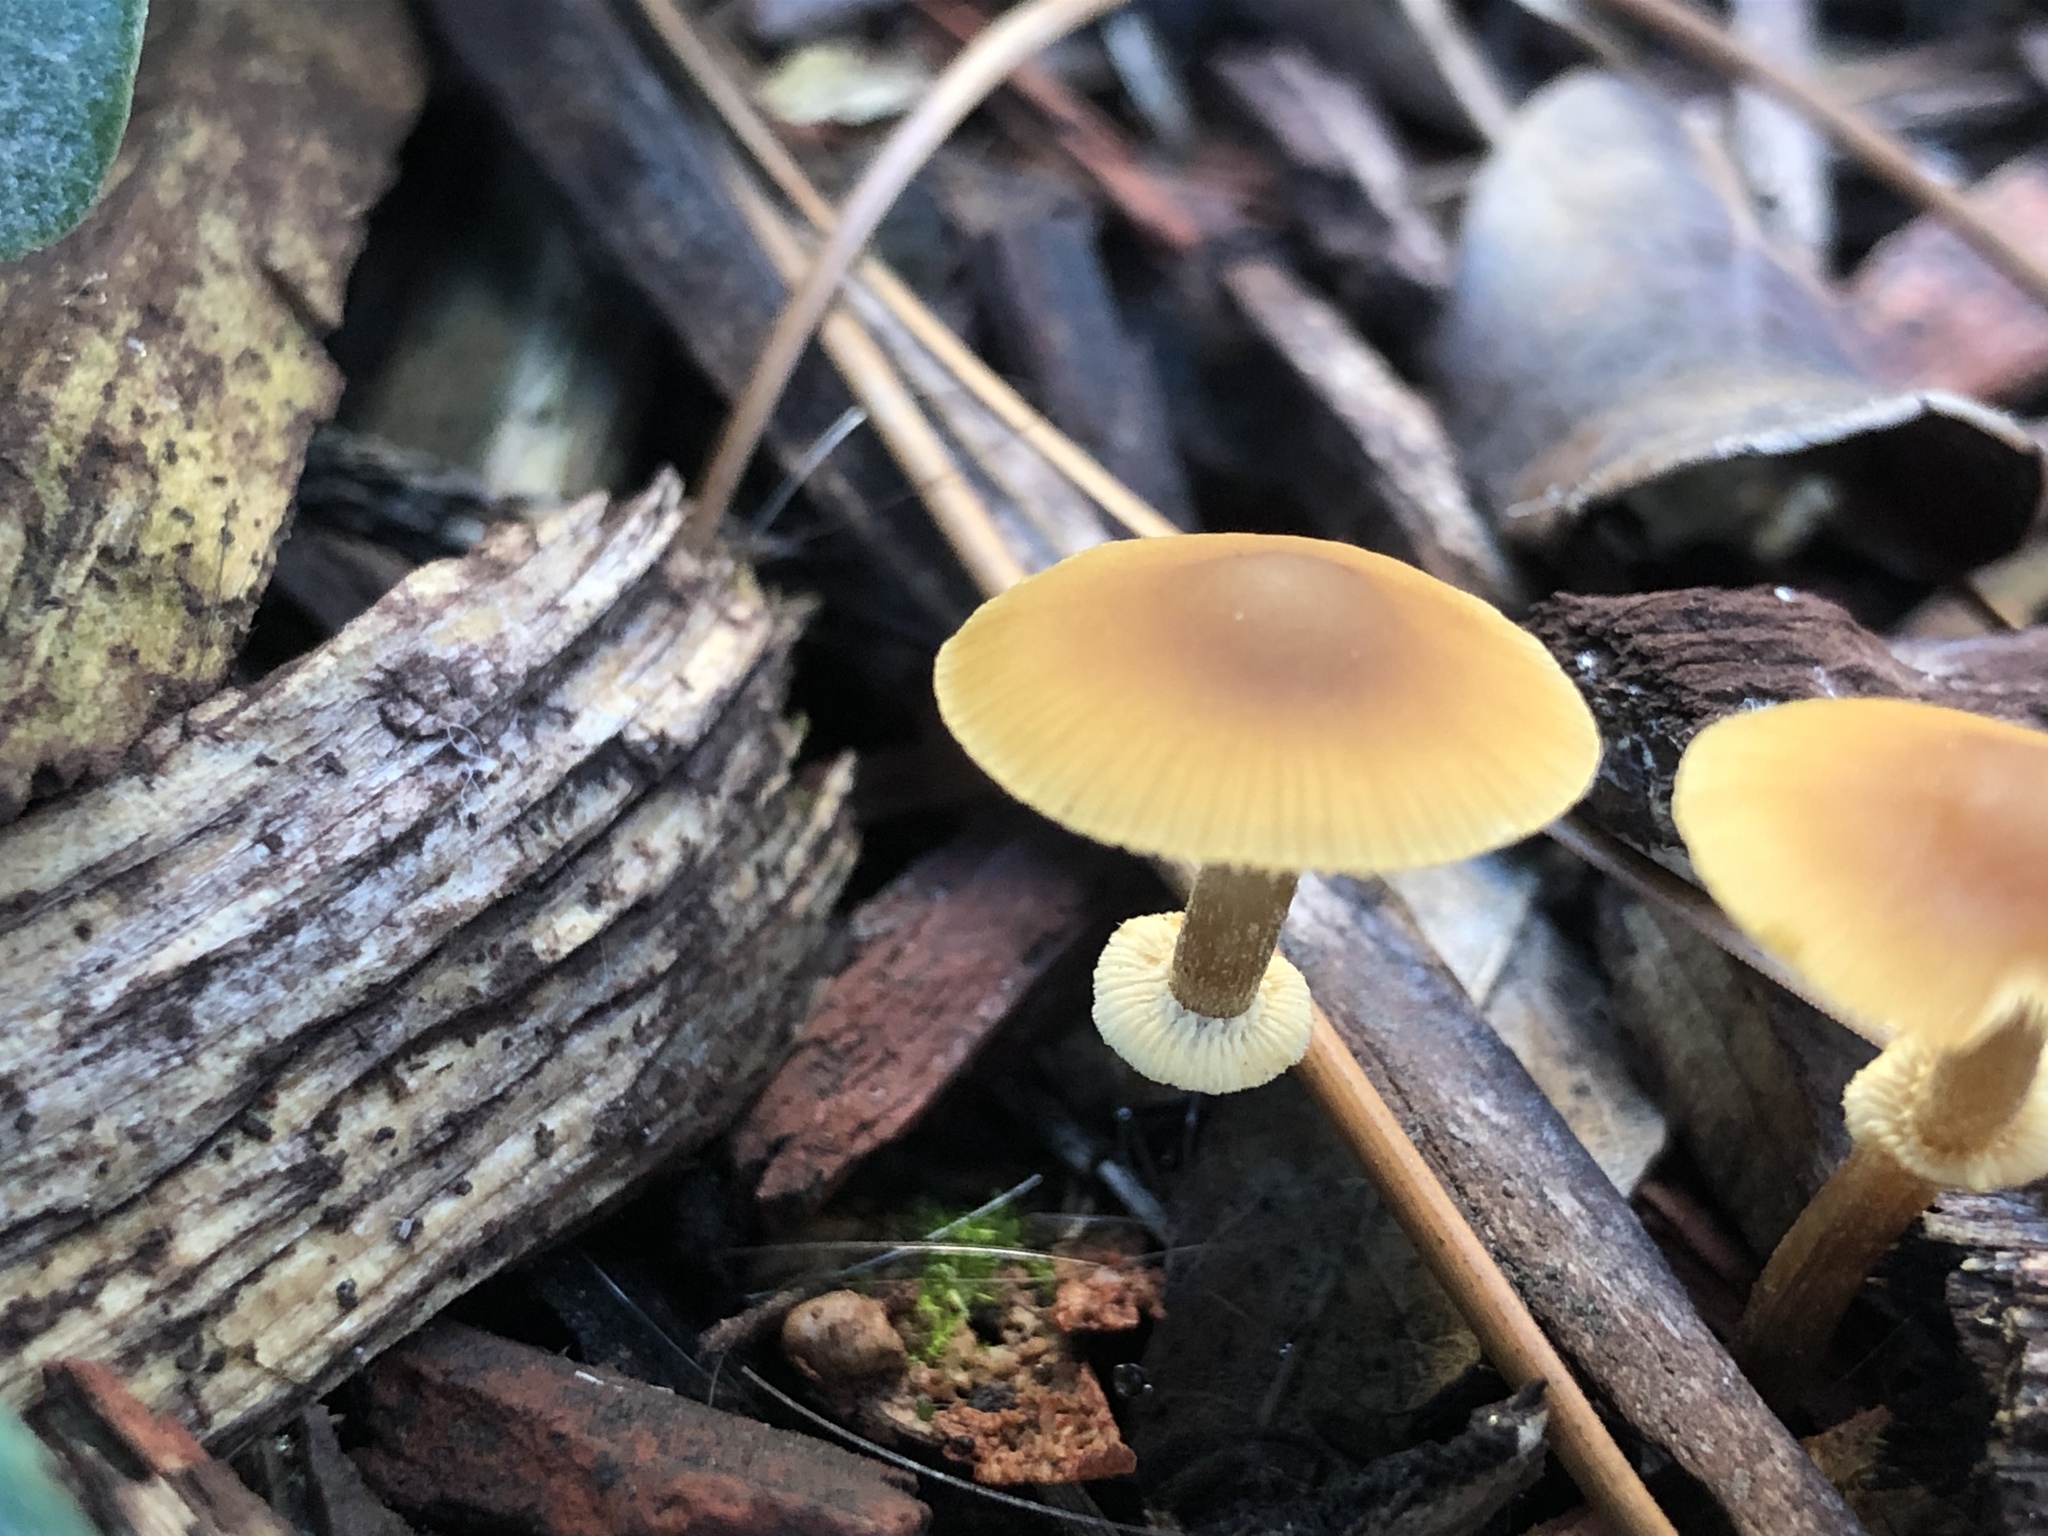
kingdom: Fungi
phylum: Basidiomycota
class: Agaricomycetes
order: Agaricales
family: Bolbitiaceae
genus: Conocybe
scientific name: Conocybe rugosa
